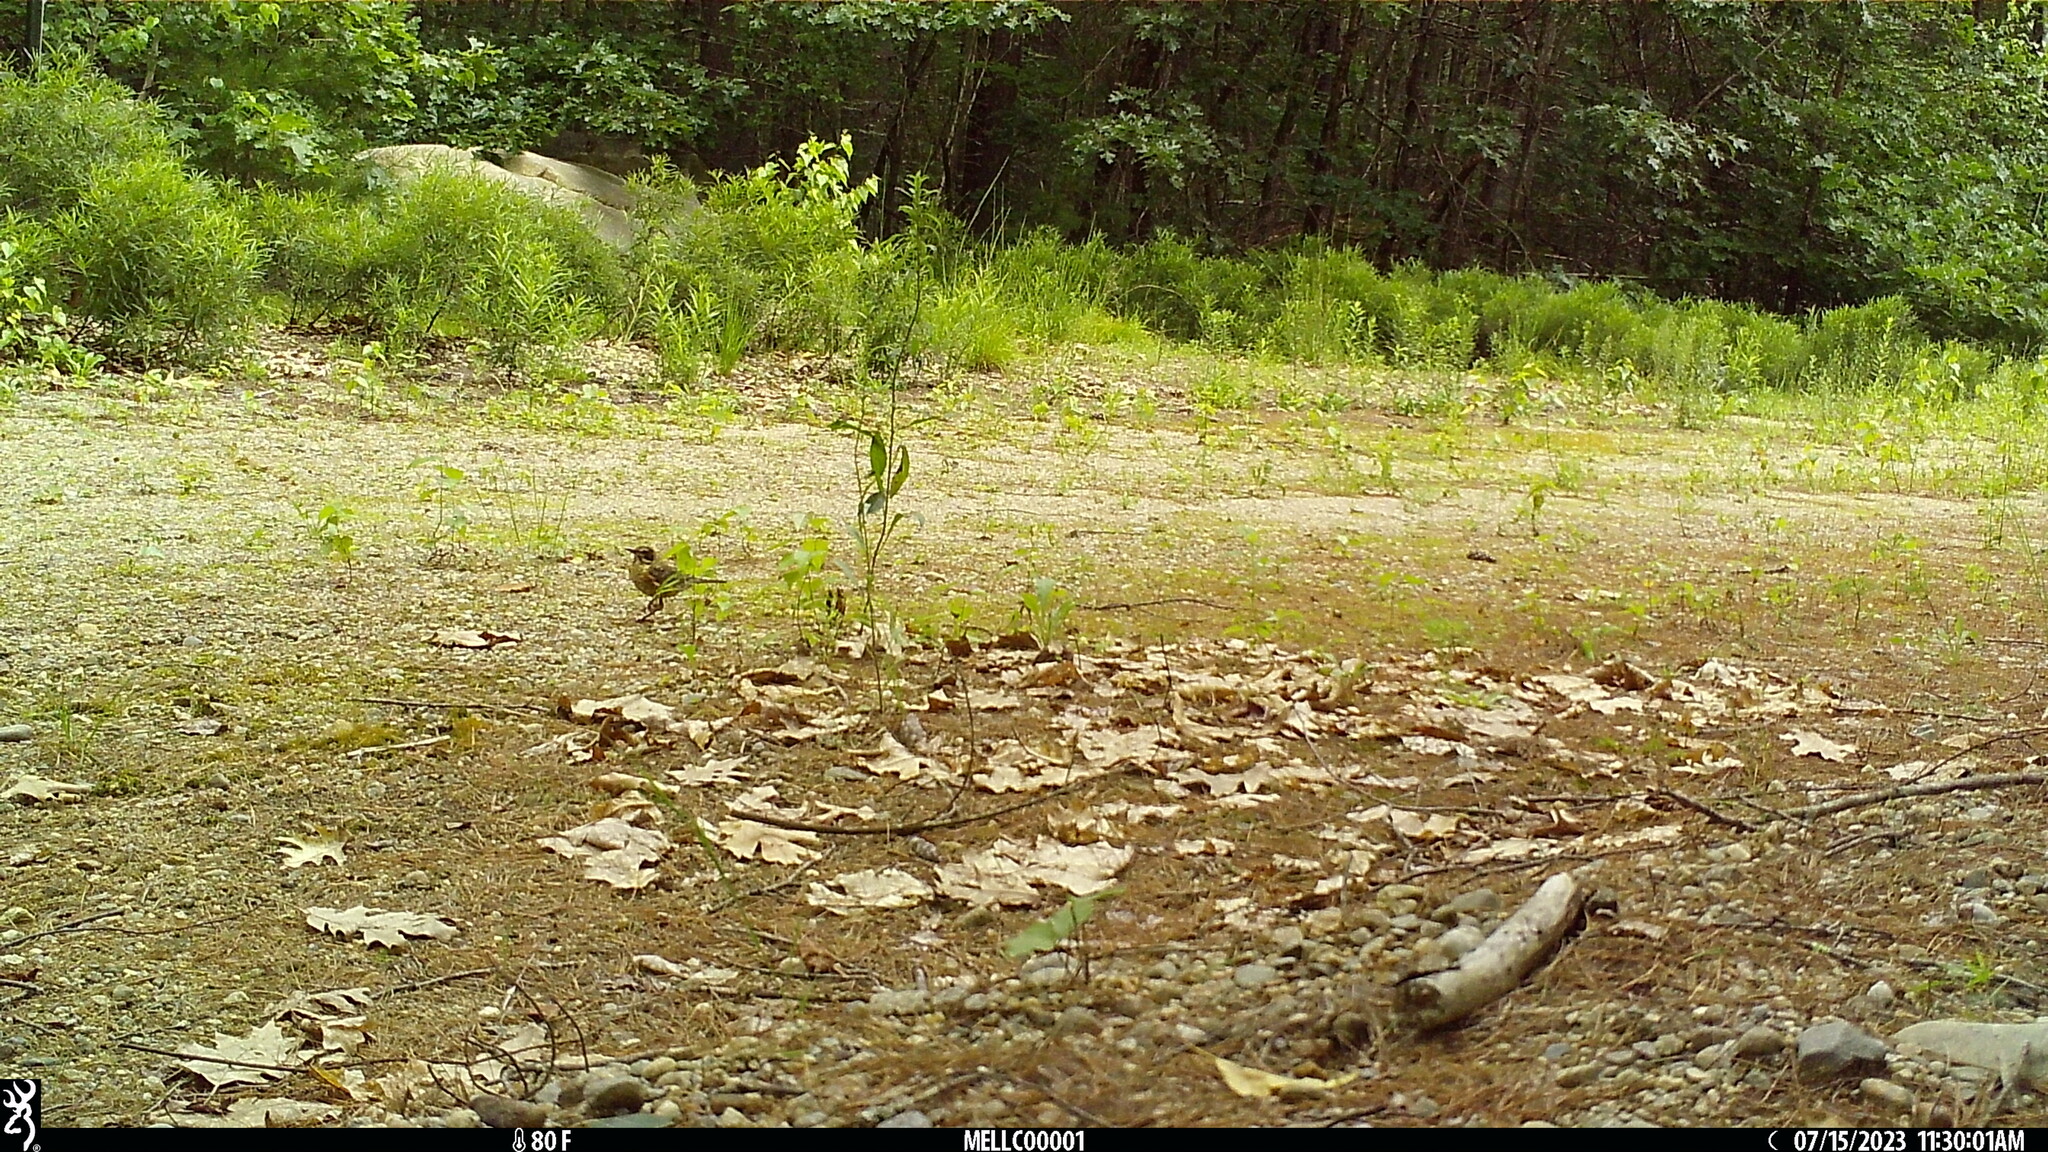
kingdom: Animalia
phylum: Chordata
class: Aves
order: Passeriformes
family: Turdidae
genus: Turdus
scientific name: Turdus migratorius
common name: American robin
